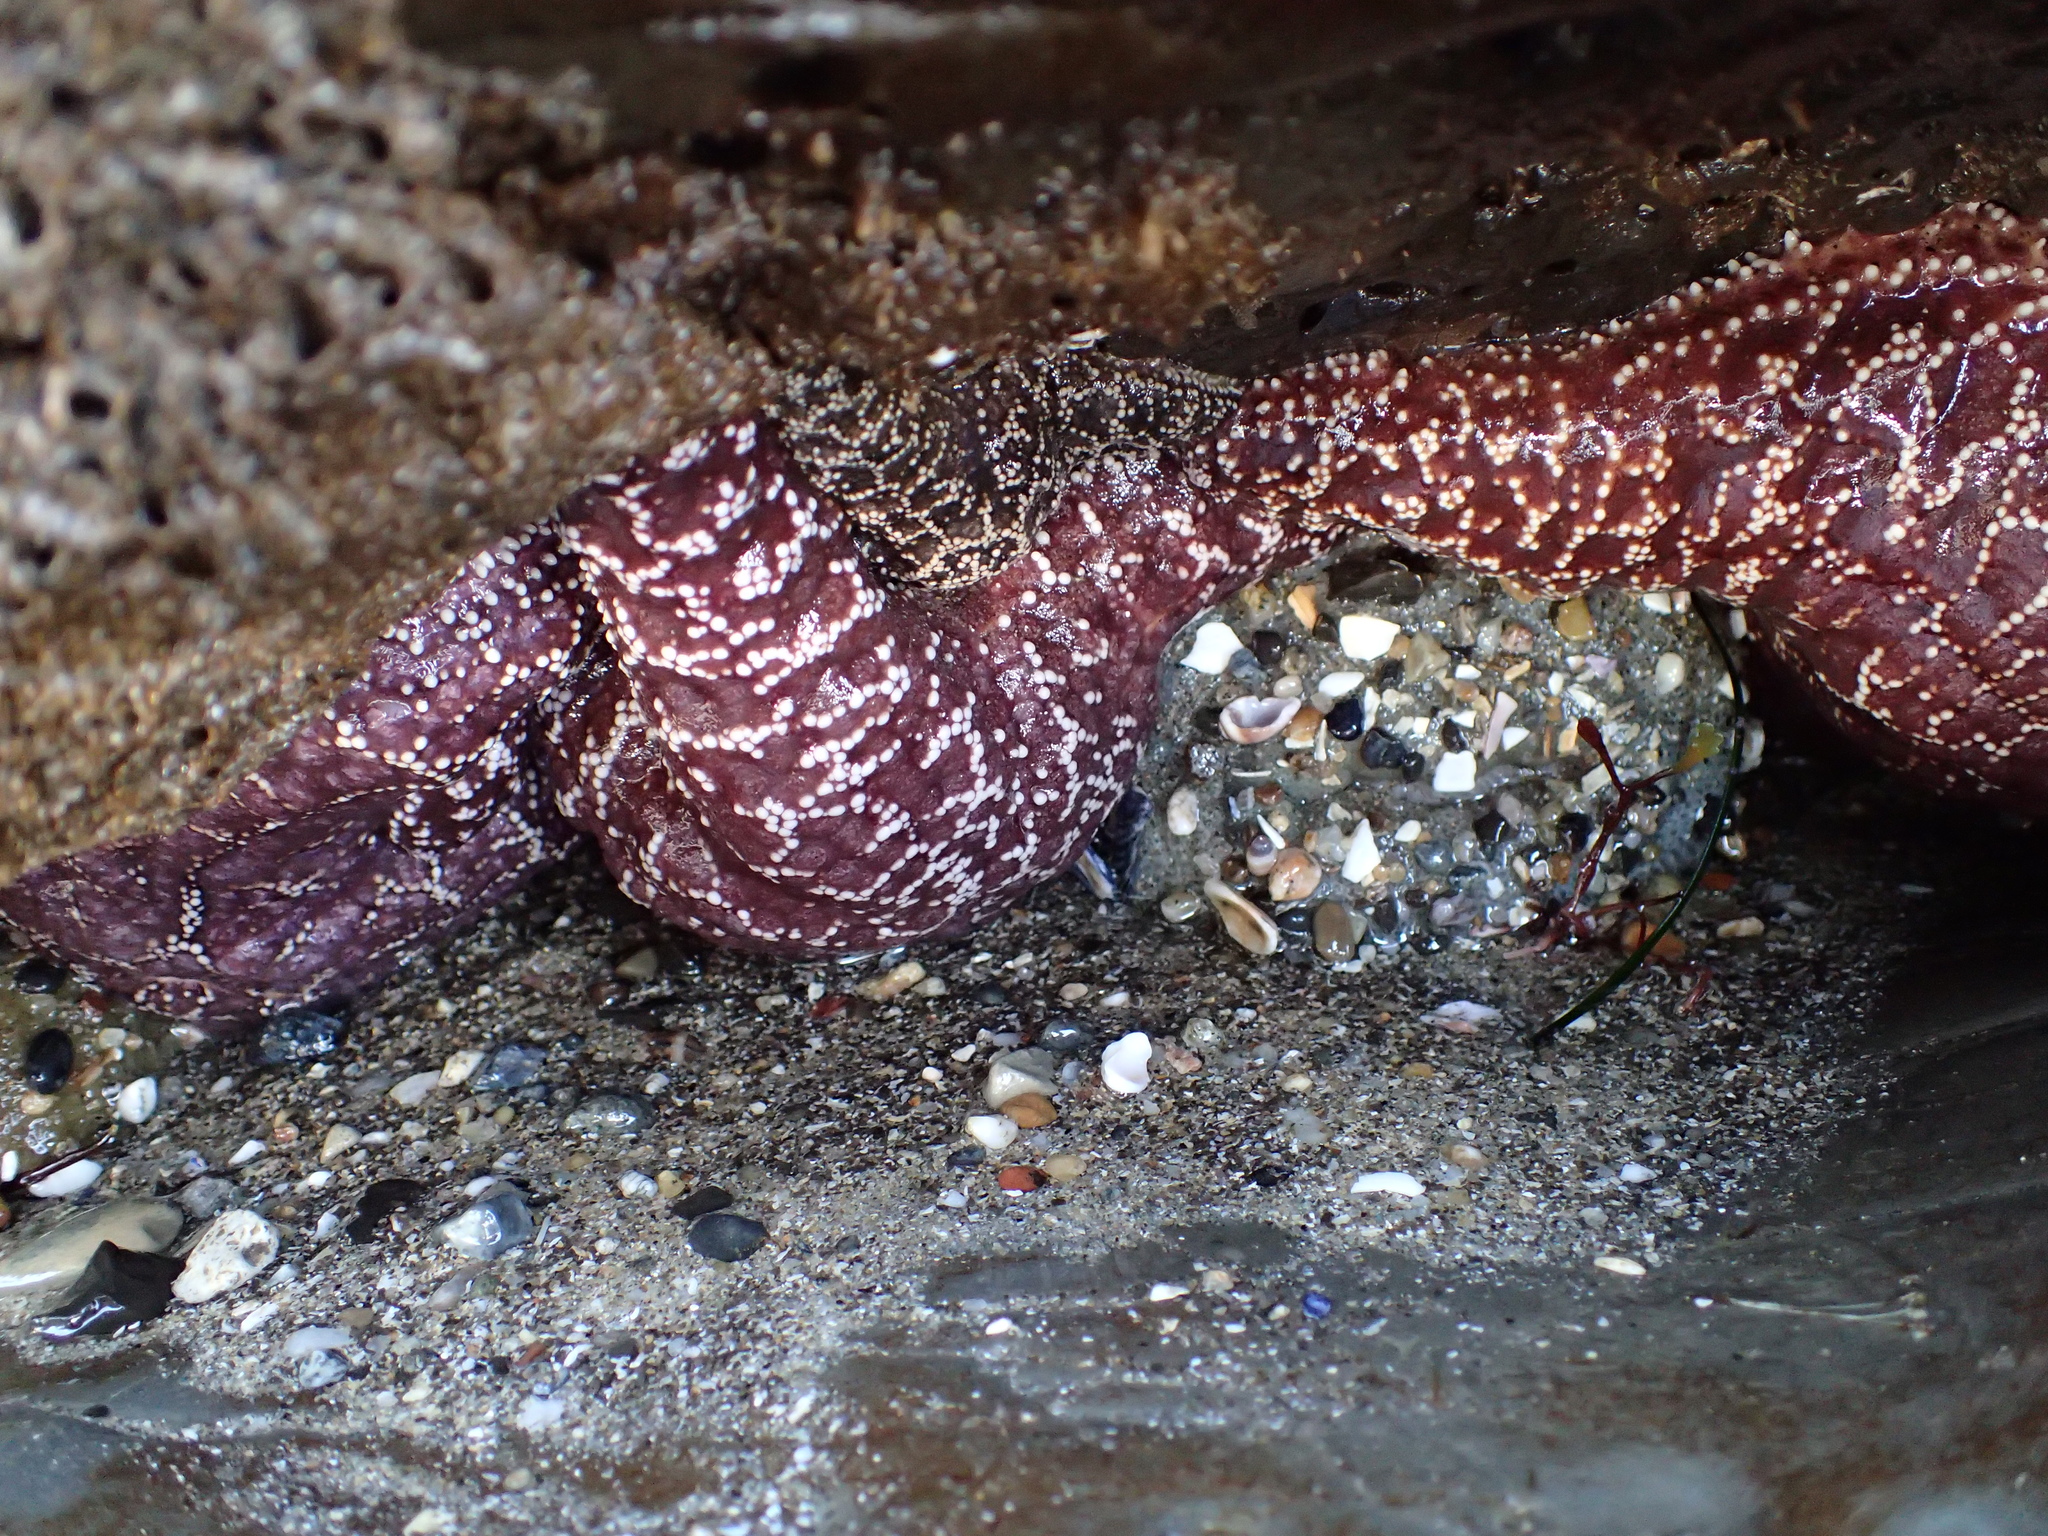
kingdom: Animalia
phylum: Echinodermata
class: Asteroidea
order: Forcipulatida
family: Asteriidae
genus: Pisaster
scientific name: Pisaster ochraceus
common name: Ochre stars
